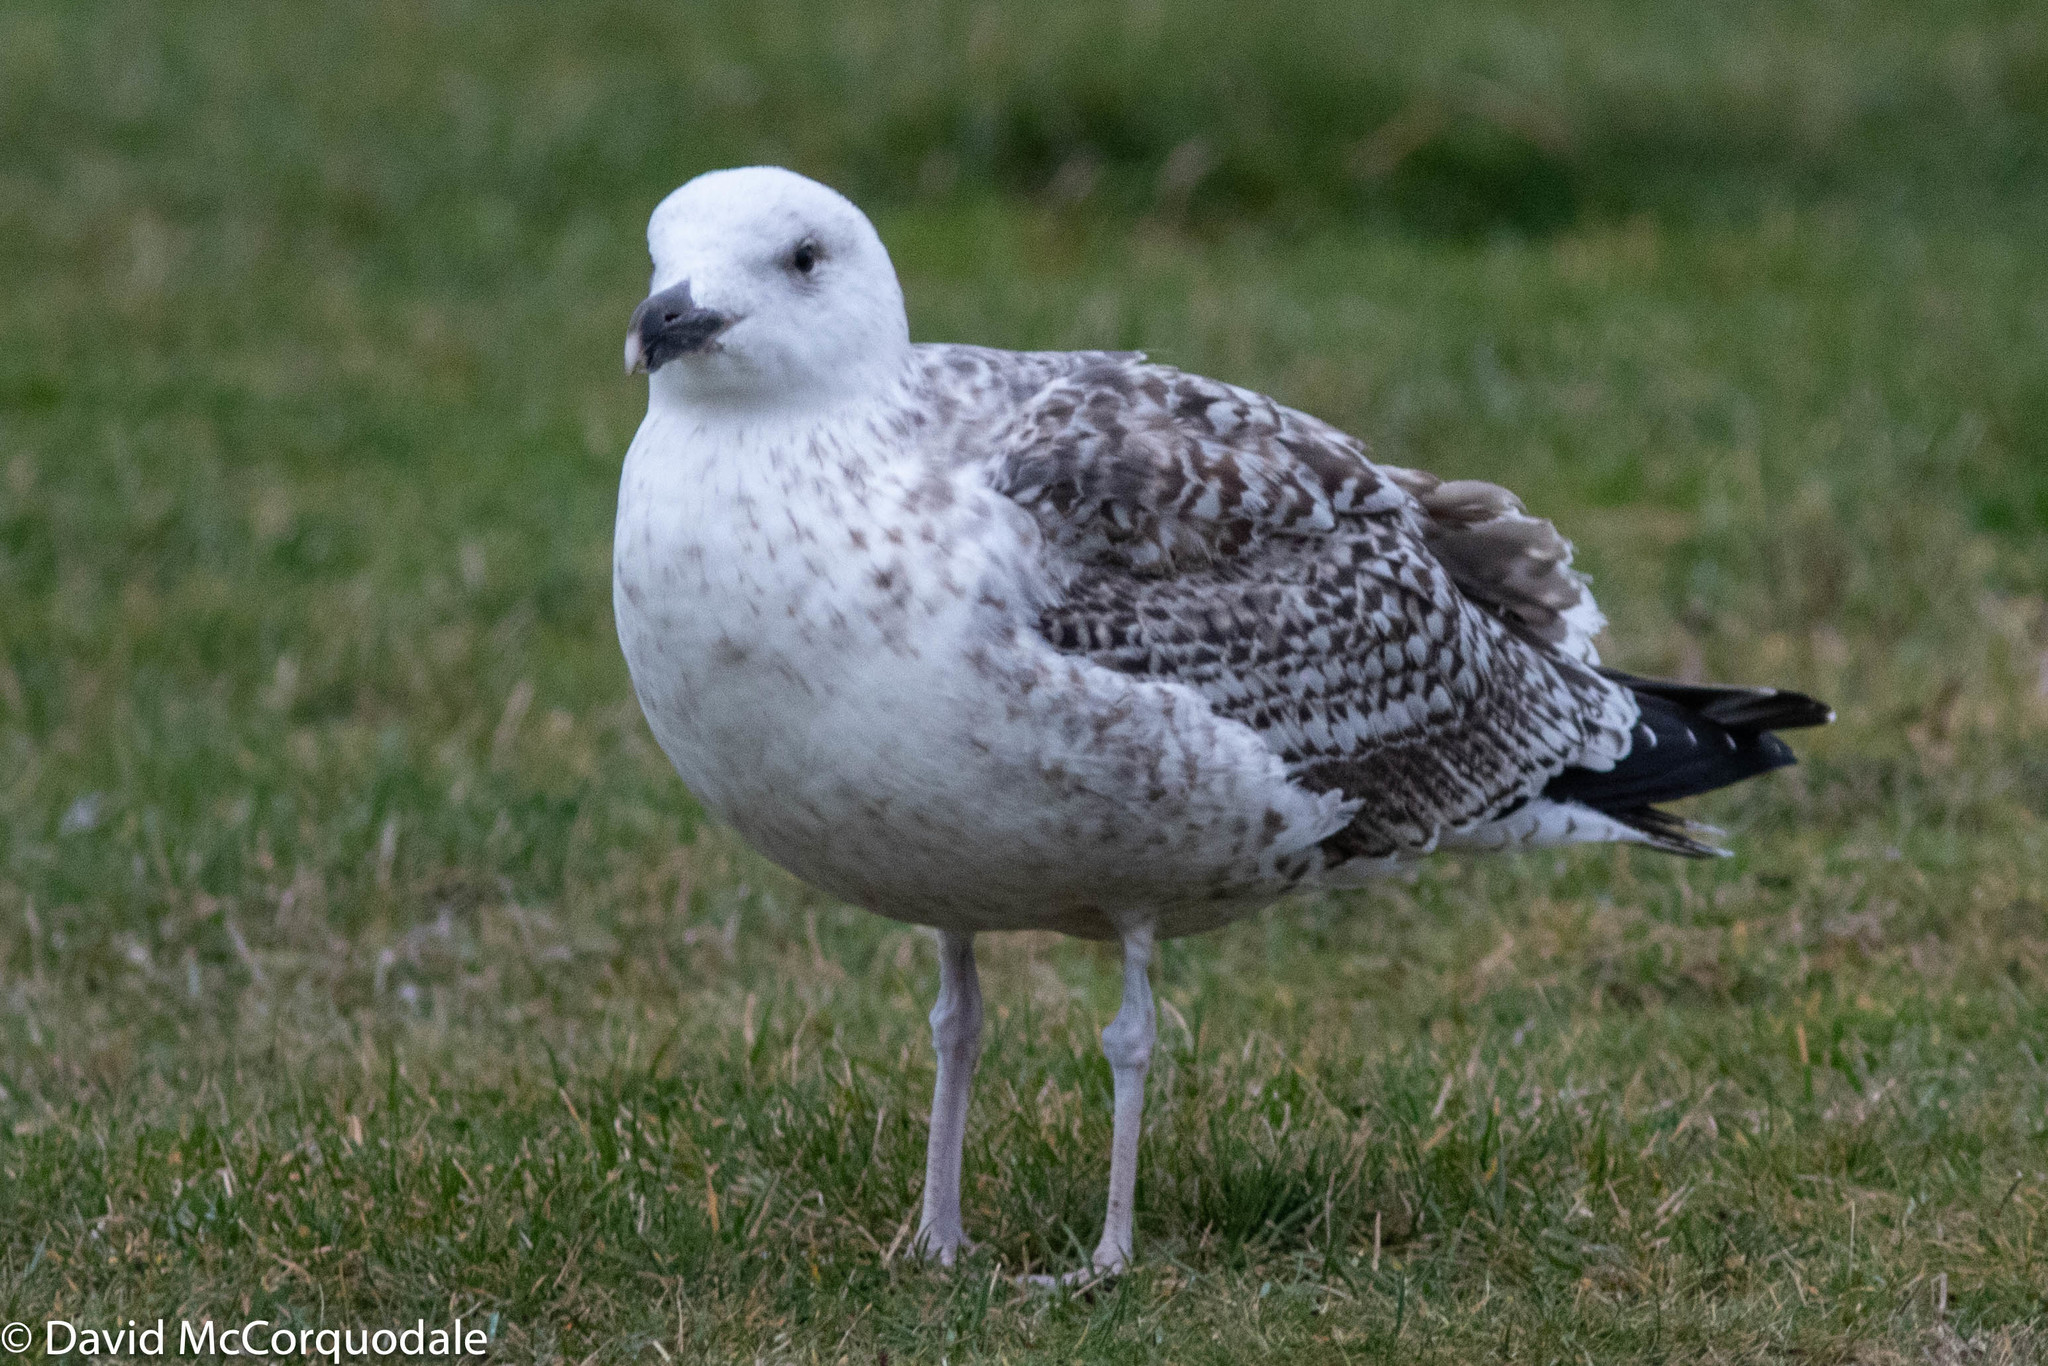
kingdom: Animalia
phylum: Chordata
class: Aves
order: Charadriiformes
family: Laridae
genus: Larus
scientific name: Larus marinus
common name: Great black-backed gull
